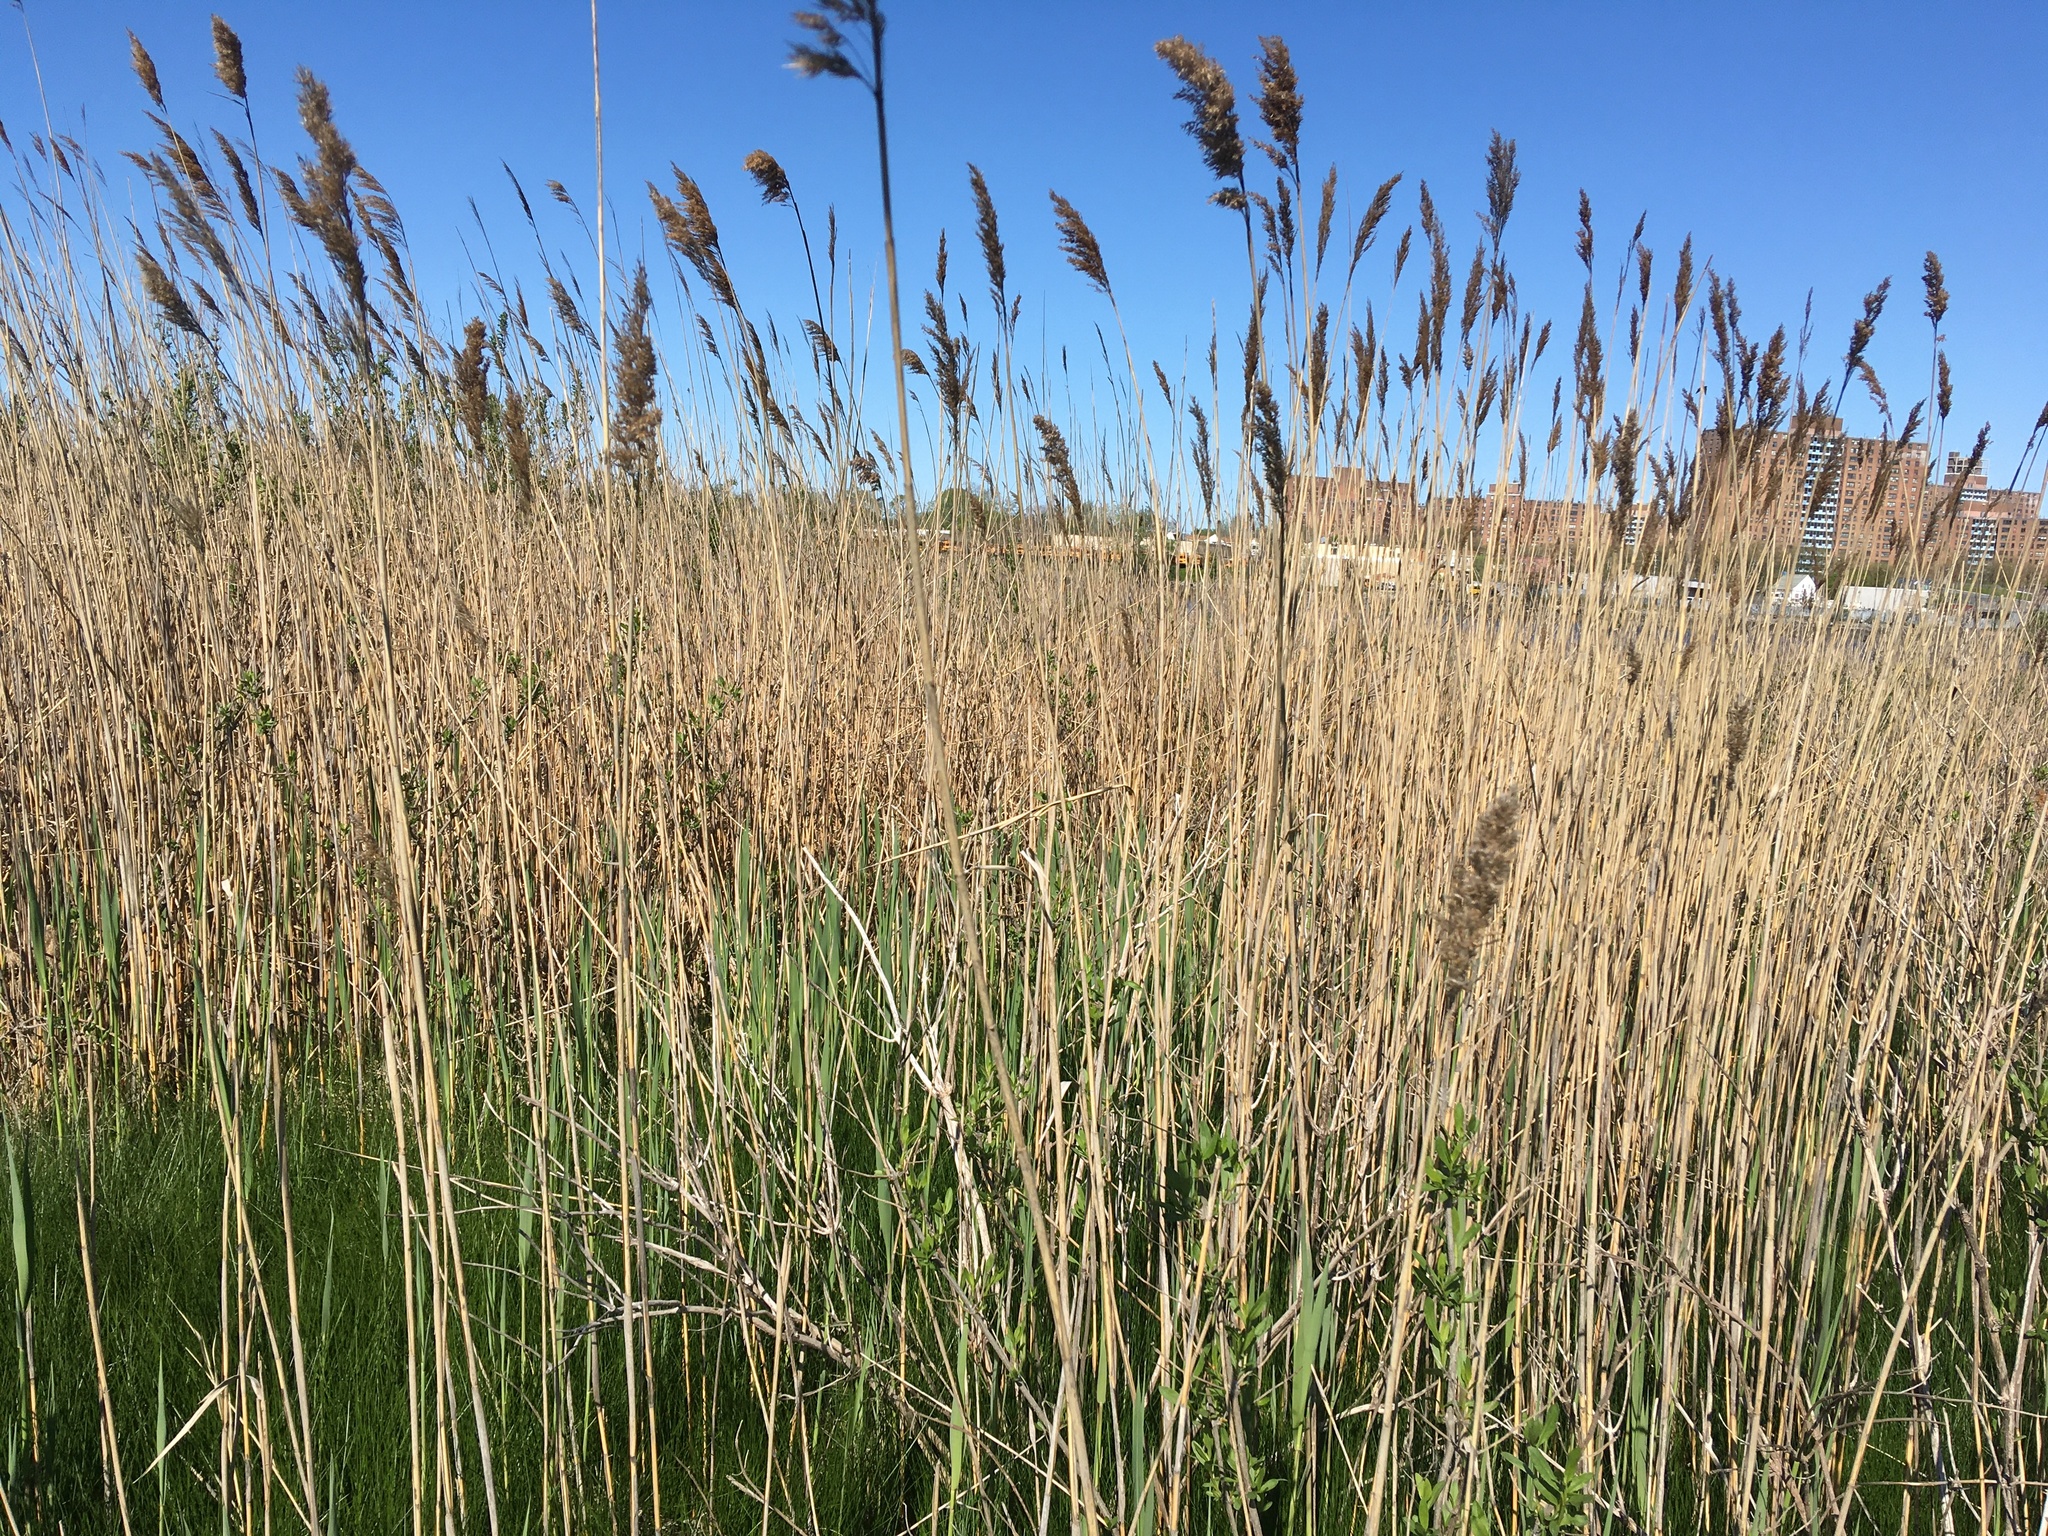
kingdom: Plantae
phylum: Tracheophyta
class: Liliopsida
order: Poales
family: Poaceae
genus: Phragmites
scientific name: Phragmites australis
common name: Common reed
